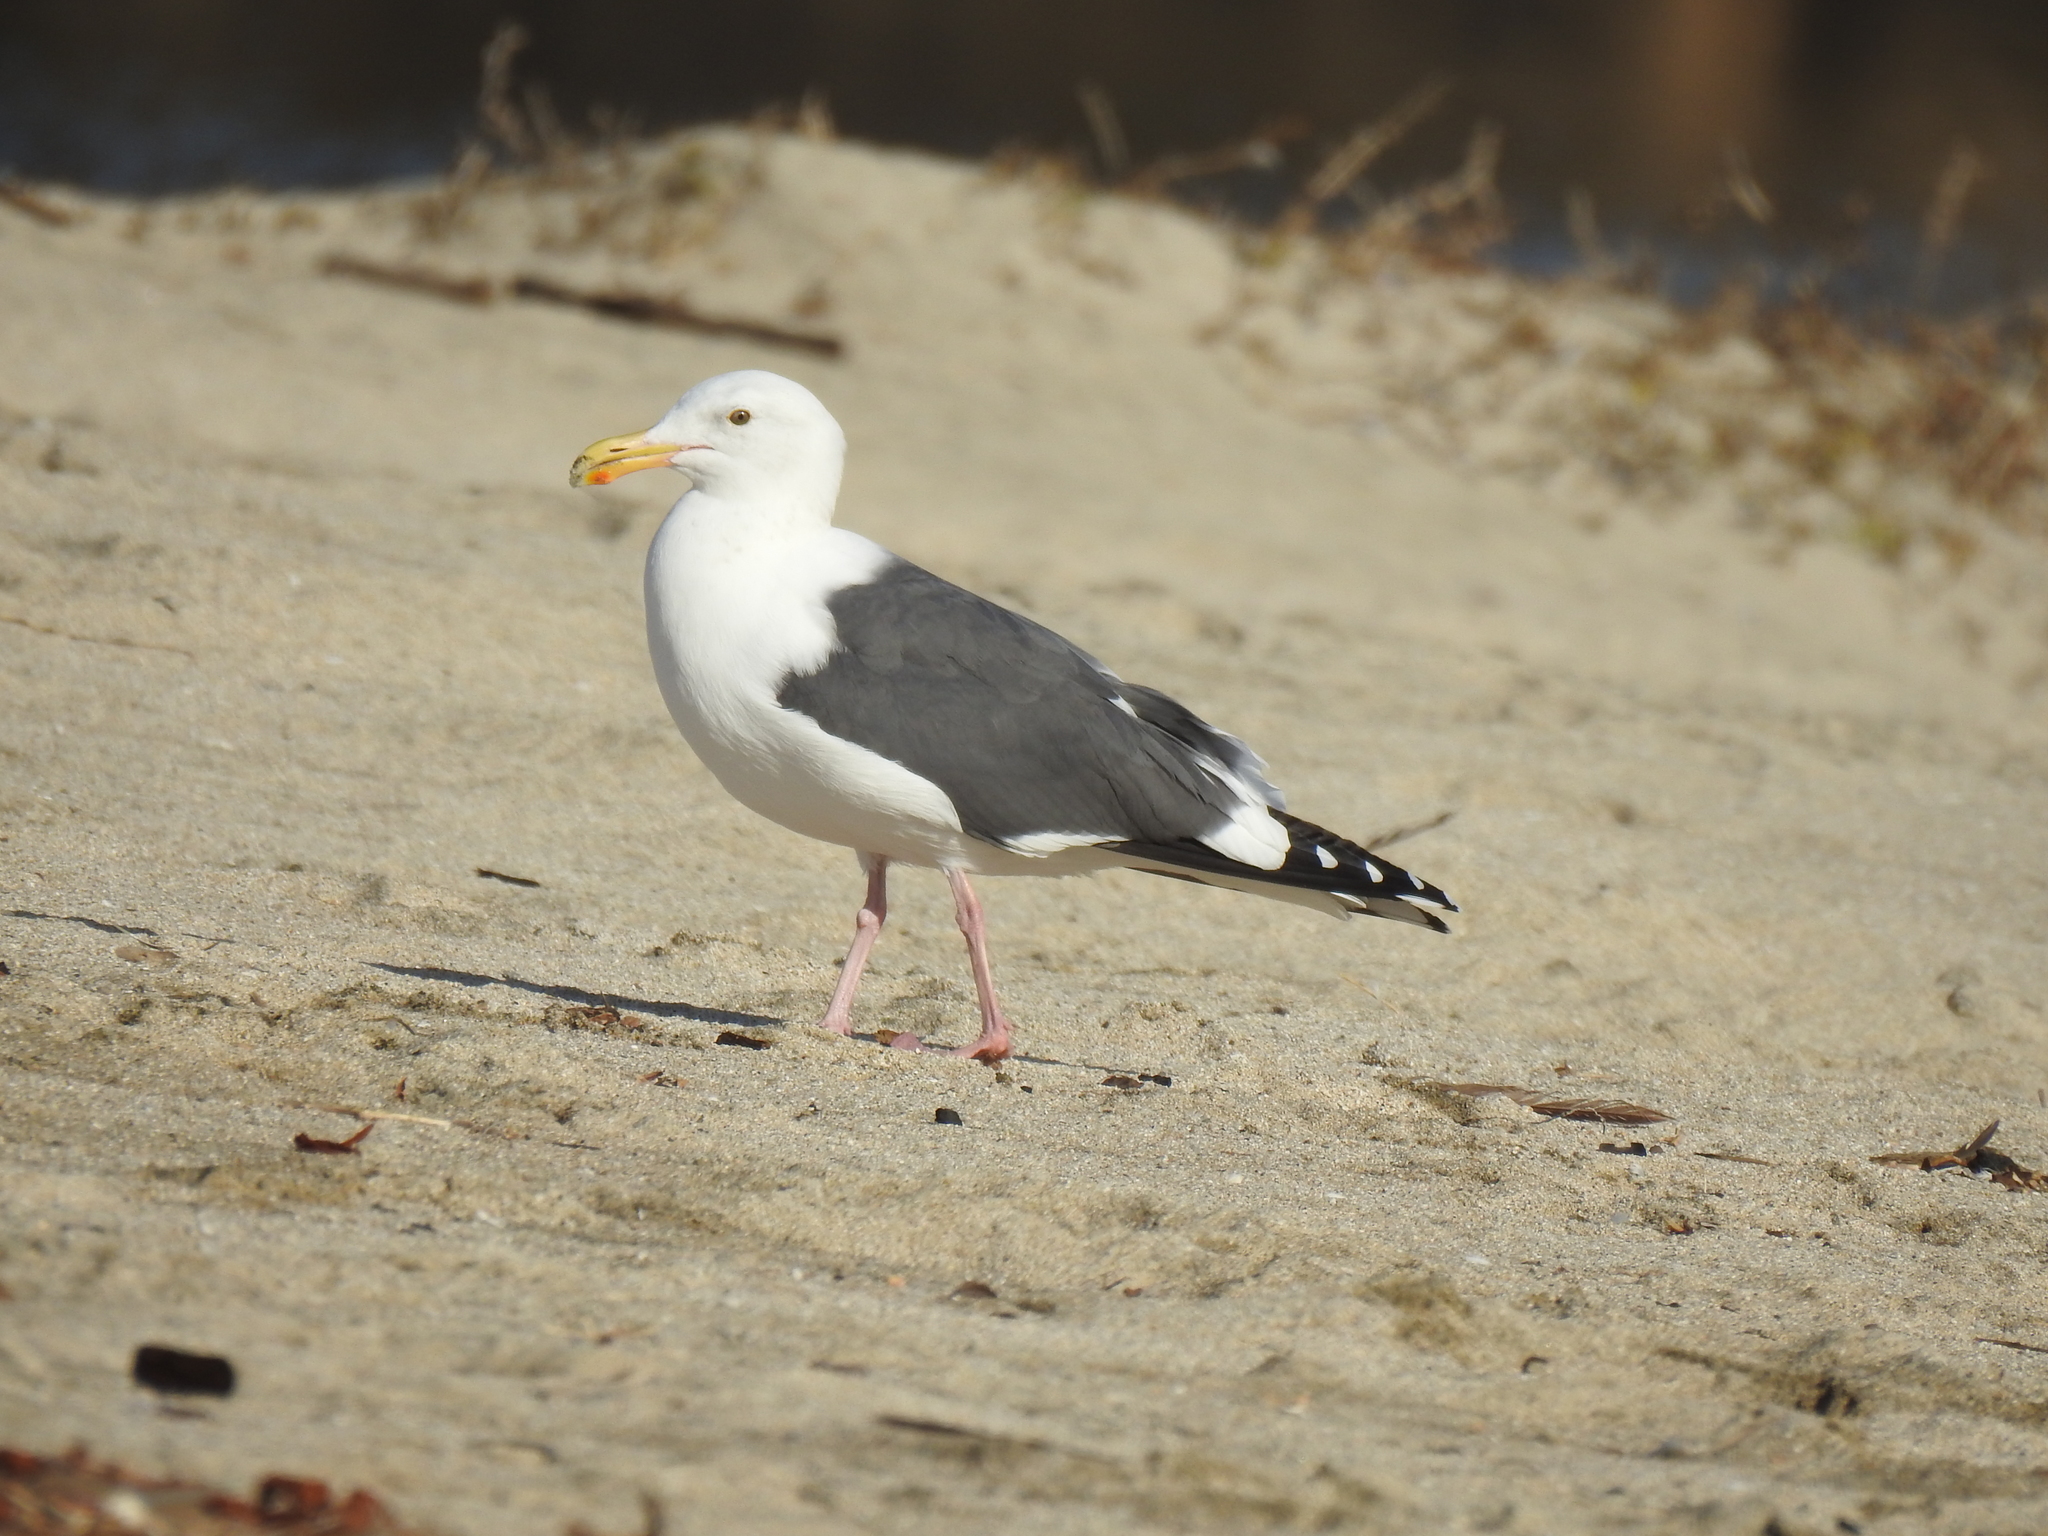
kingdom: Animalia
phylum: Chordata
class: Aves
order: Charadriiformes
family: Laridae
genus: Larus
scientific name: Larus occidentalis
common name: Western gull
